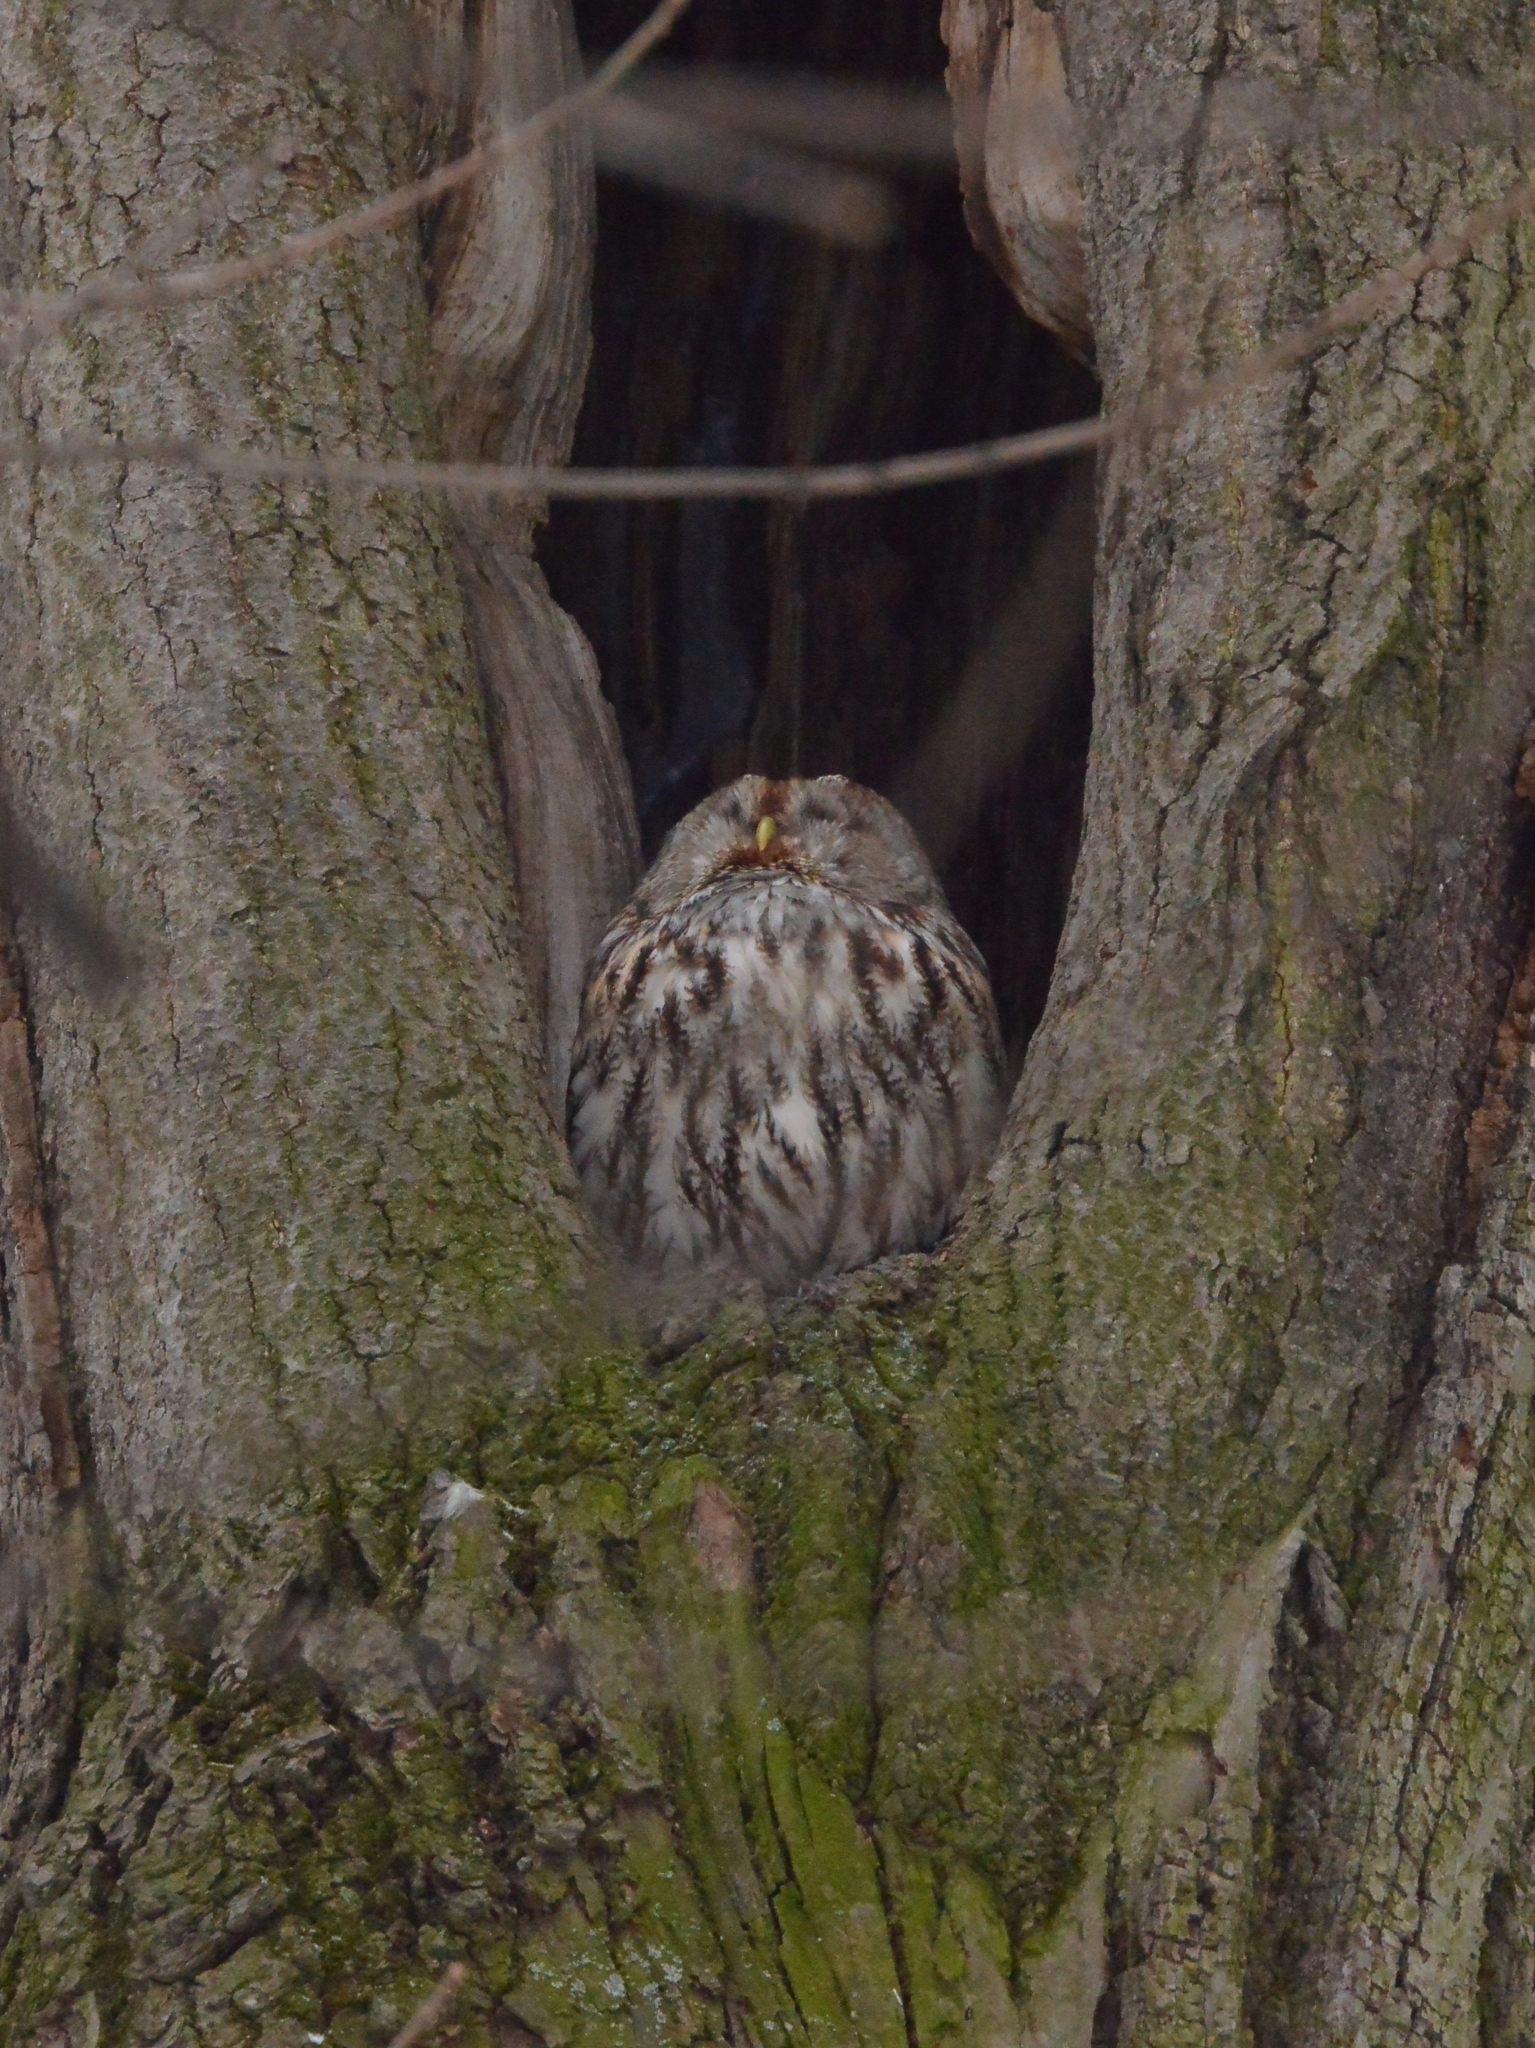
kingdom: Animalia
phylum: Chordata
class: Aves
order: Strigiformes
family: Strigidae
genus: Strix
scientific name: Strix aluco
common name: Tawny owl
